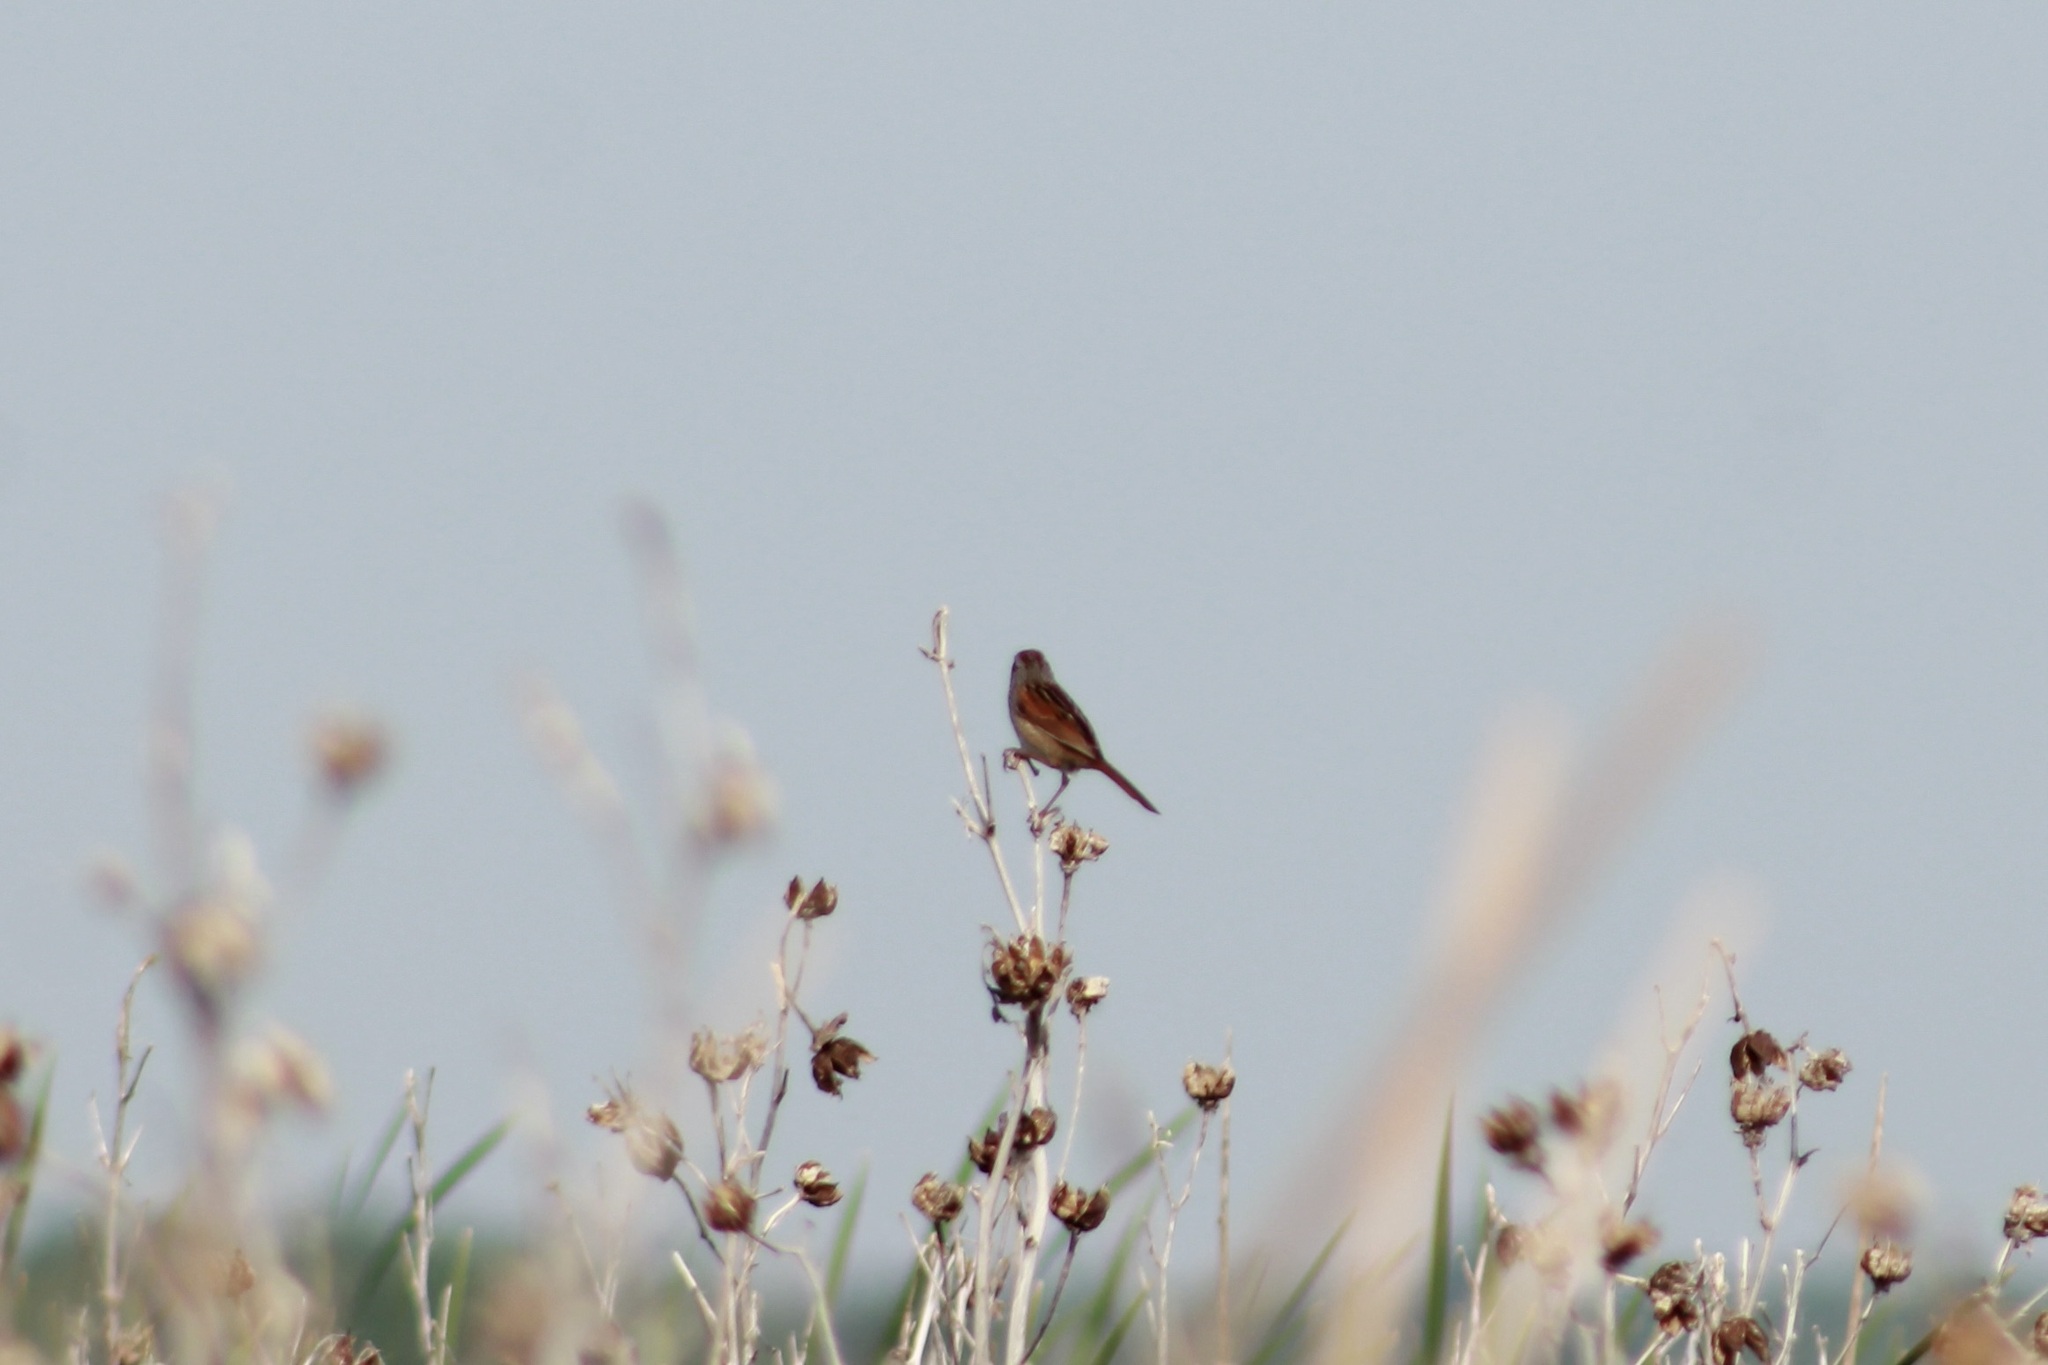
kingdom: Animalia
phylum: Chordata
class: Aves
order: Passeriformes
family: Passerellidae
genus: Melospiza
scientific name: Melospiza melodia
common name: Song sparrow
